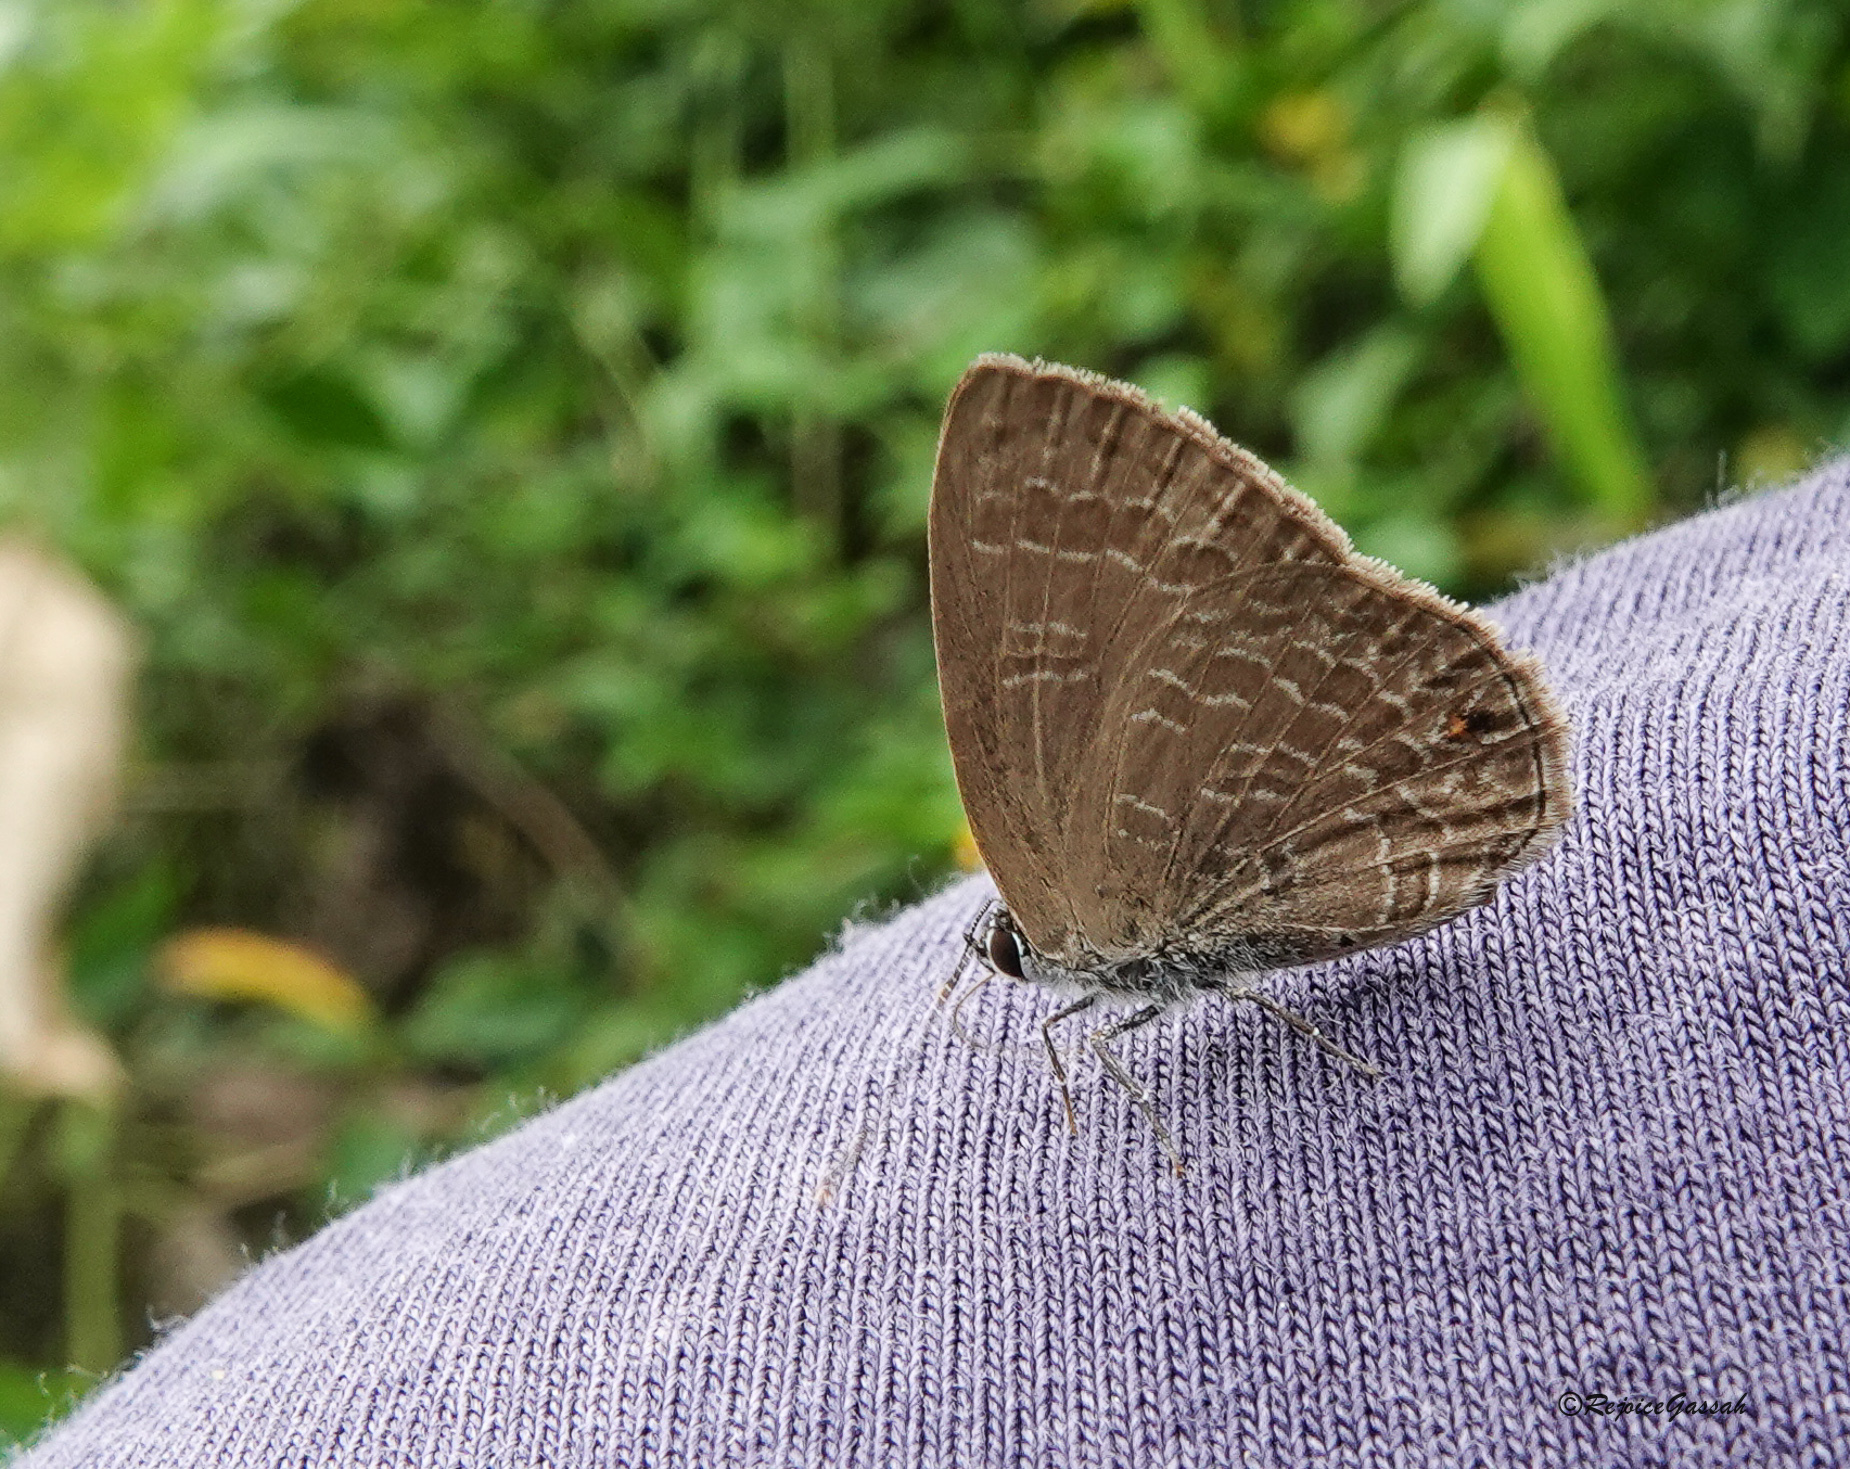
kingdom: Animalia
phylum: Arthropoda
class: Insecta
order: Lepidoptera
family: Lycaenidae
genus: Anthene
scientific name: Anthene emolus
